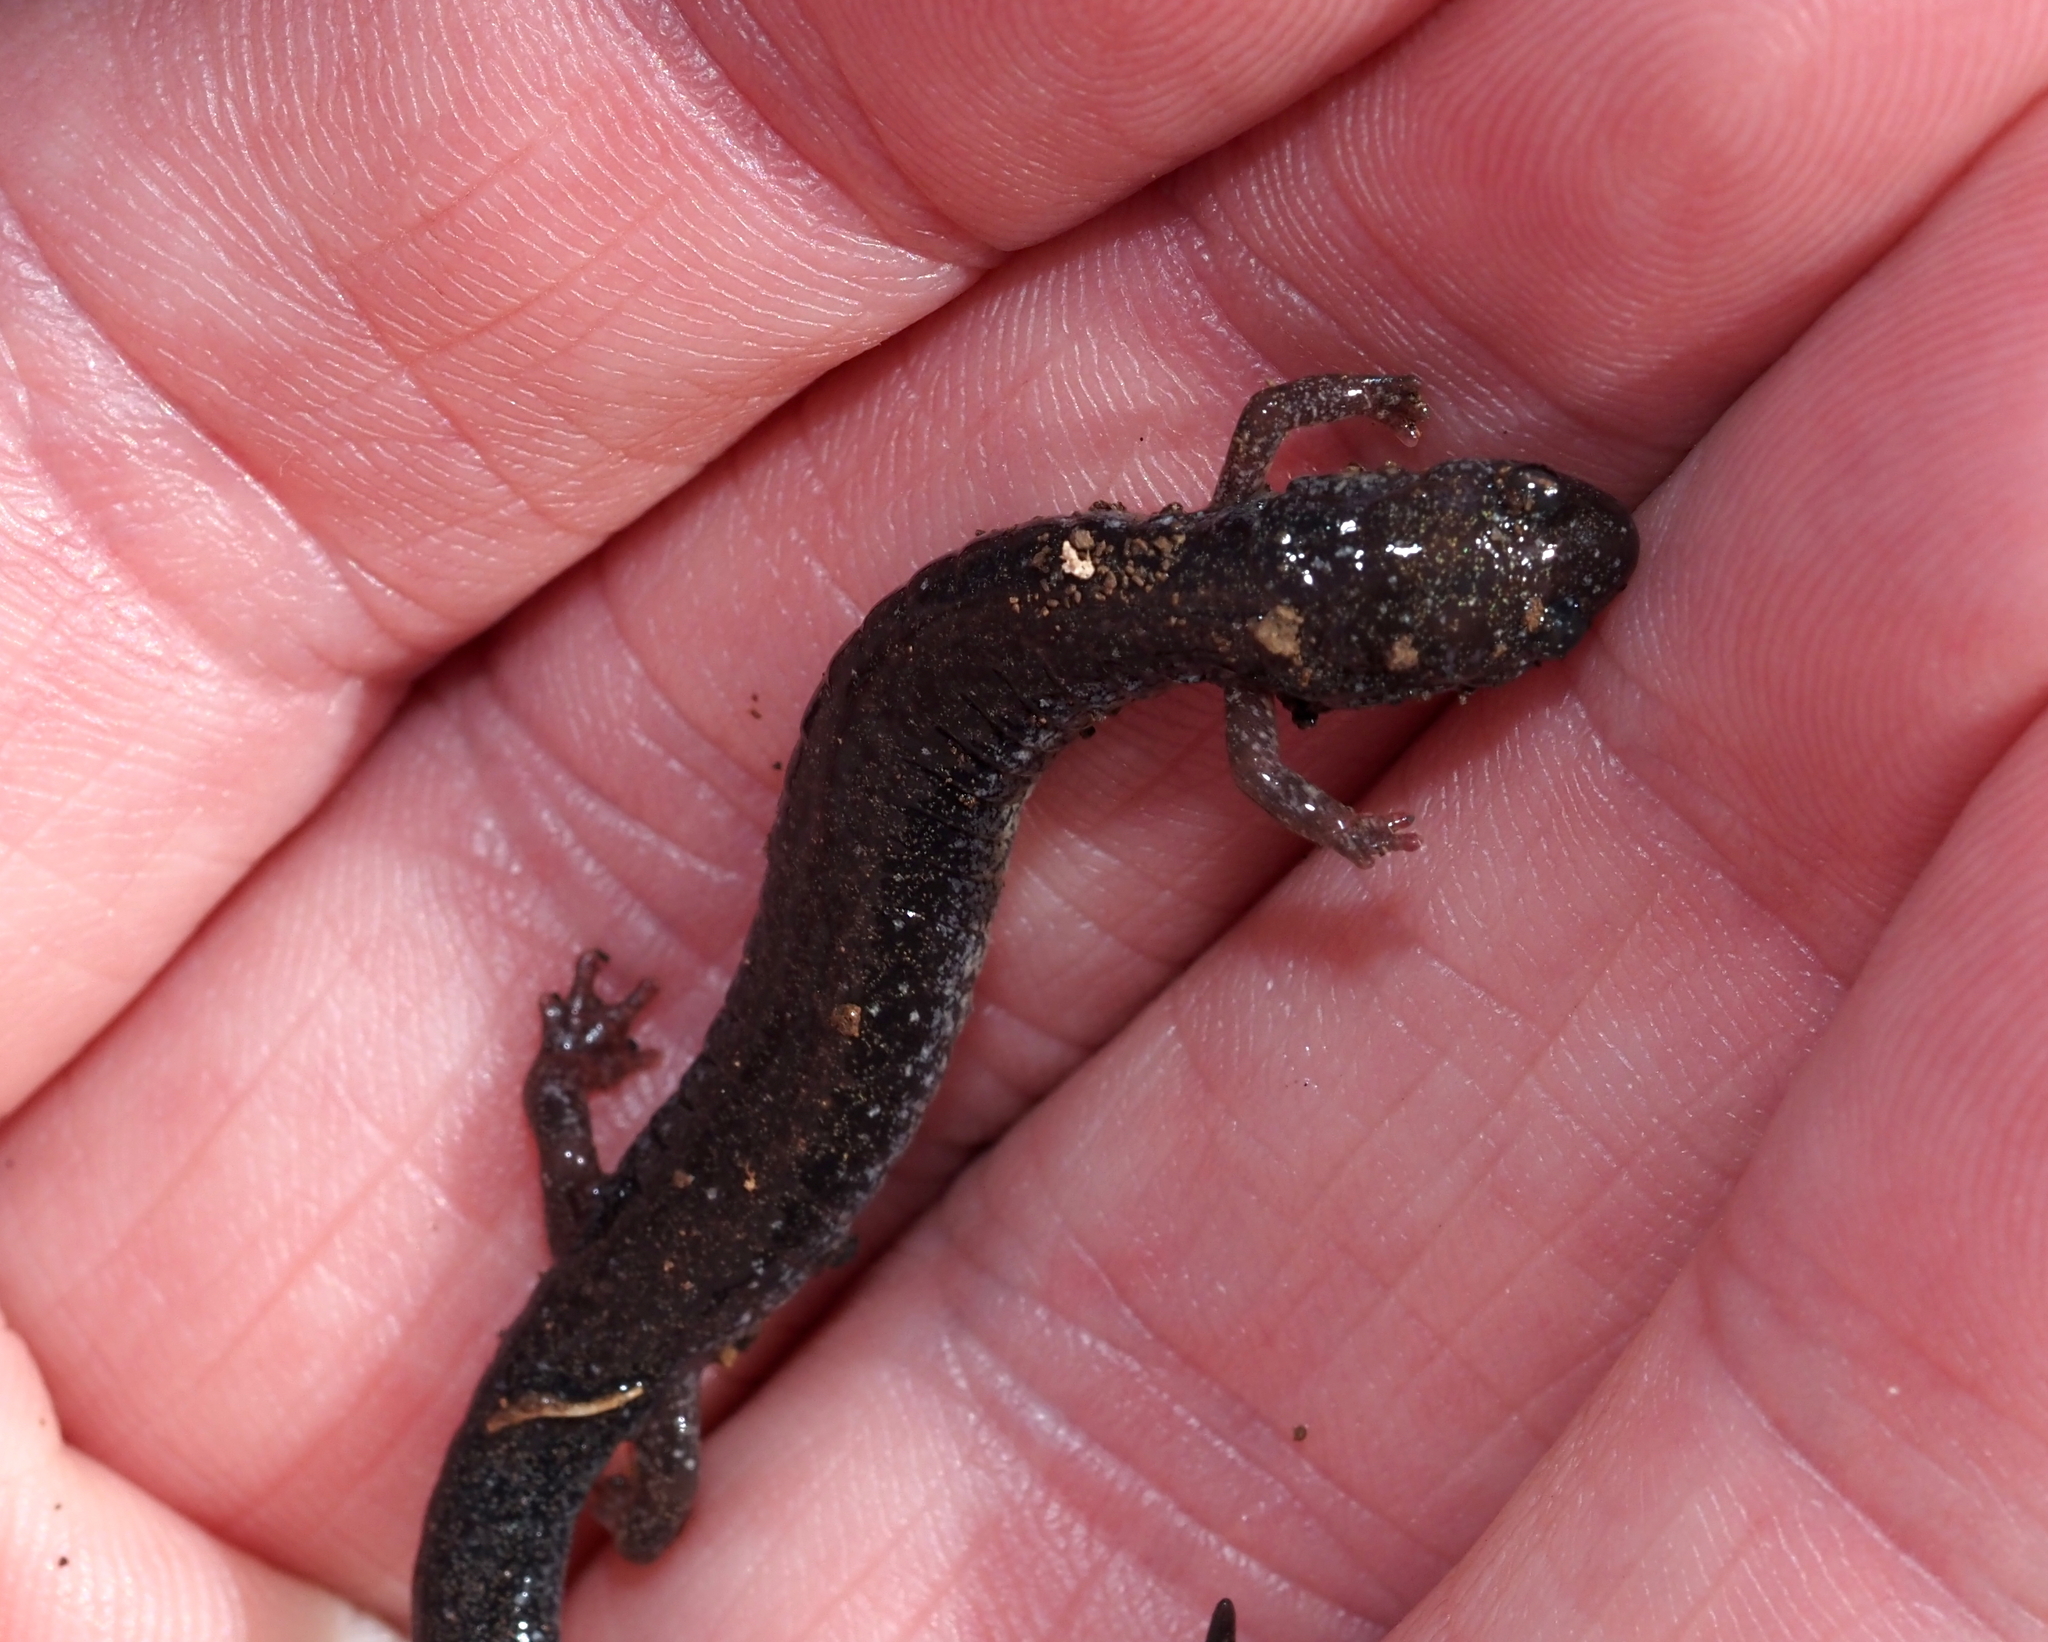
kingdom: Animalia
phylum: Chordata
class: Amphibia
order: Caudata
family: Plethodontidae
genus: Plethodon
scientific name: Plethodon cinereus
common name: Redback salamander
